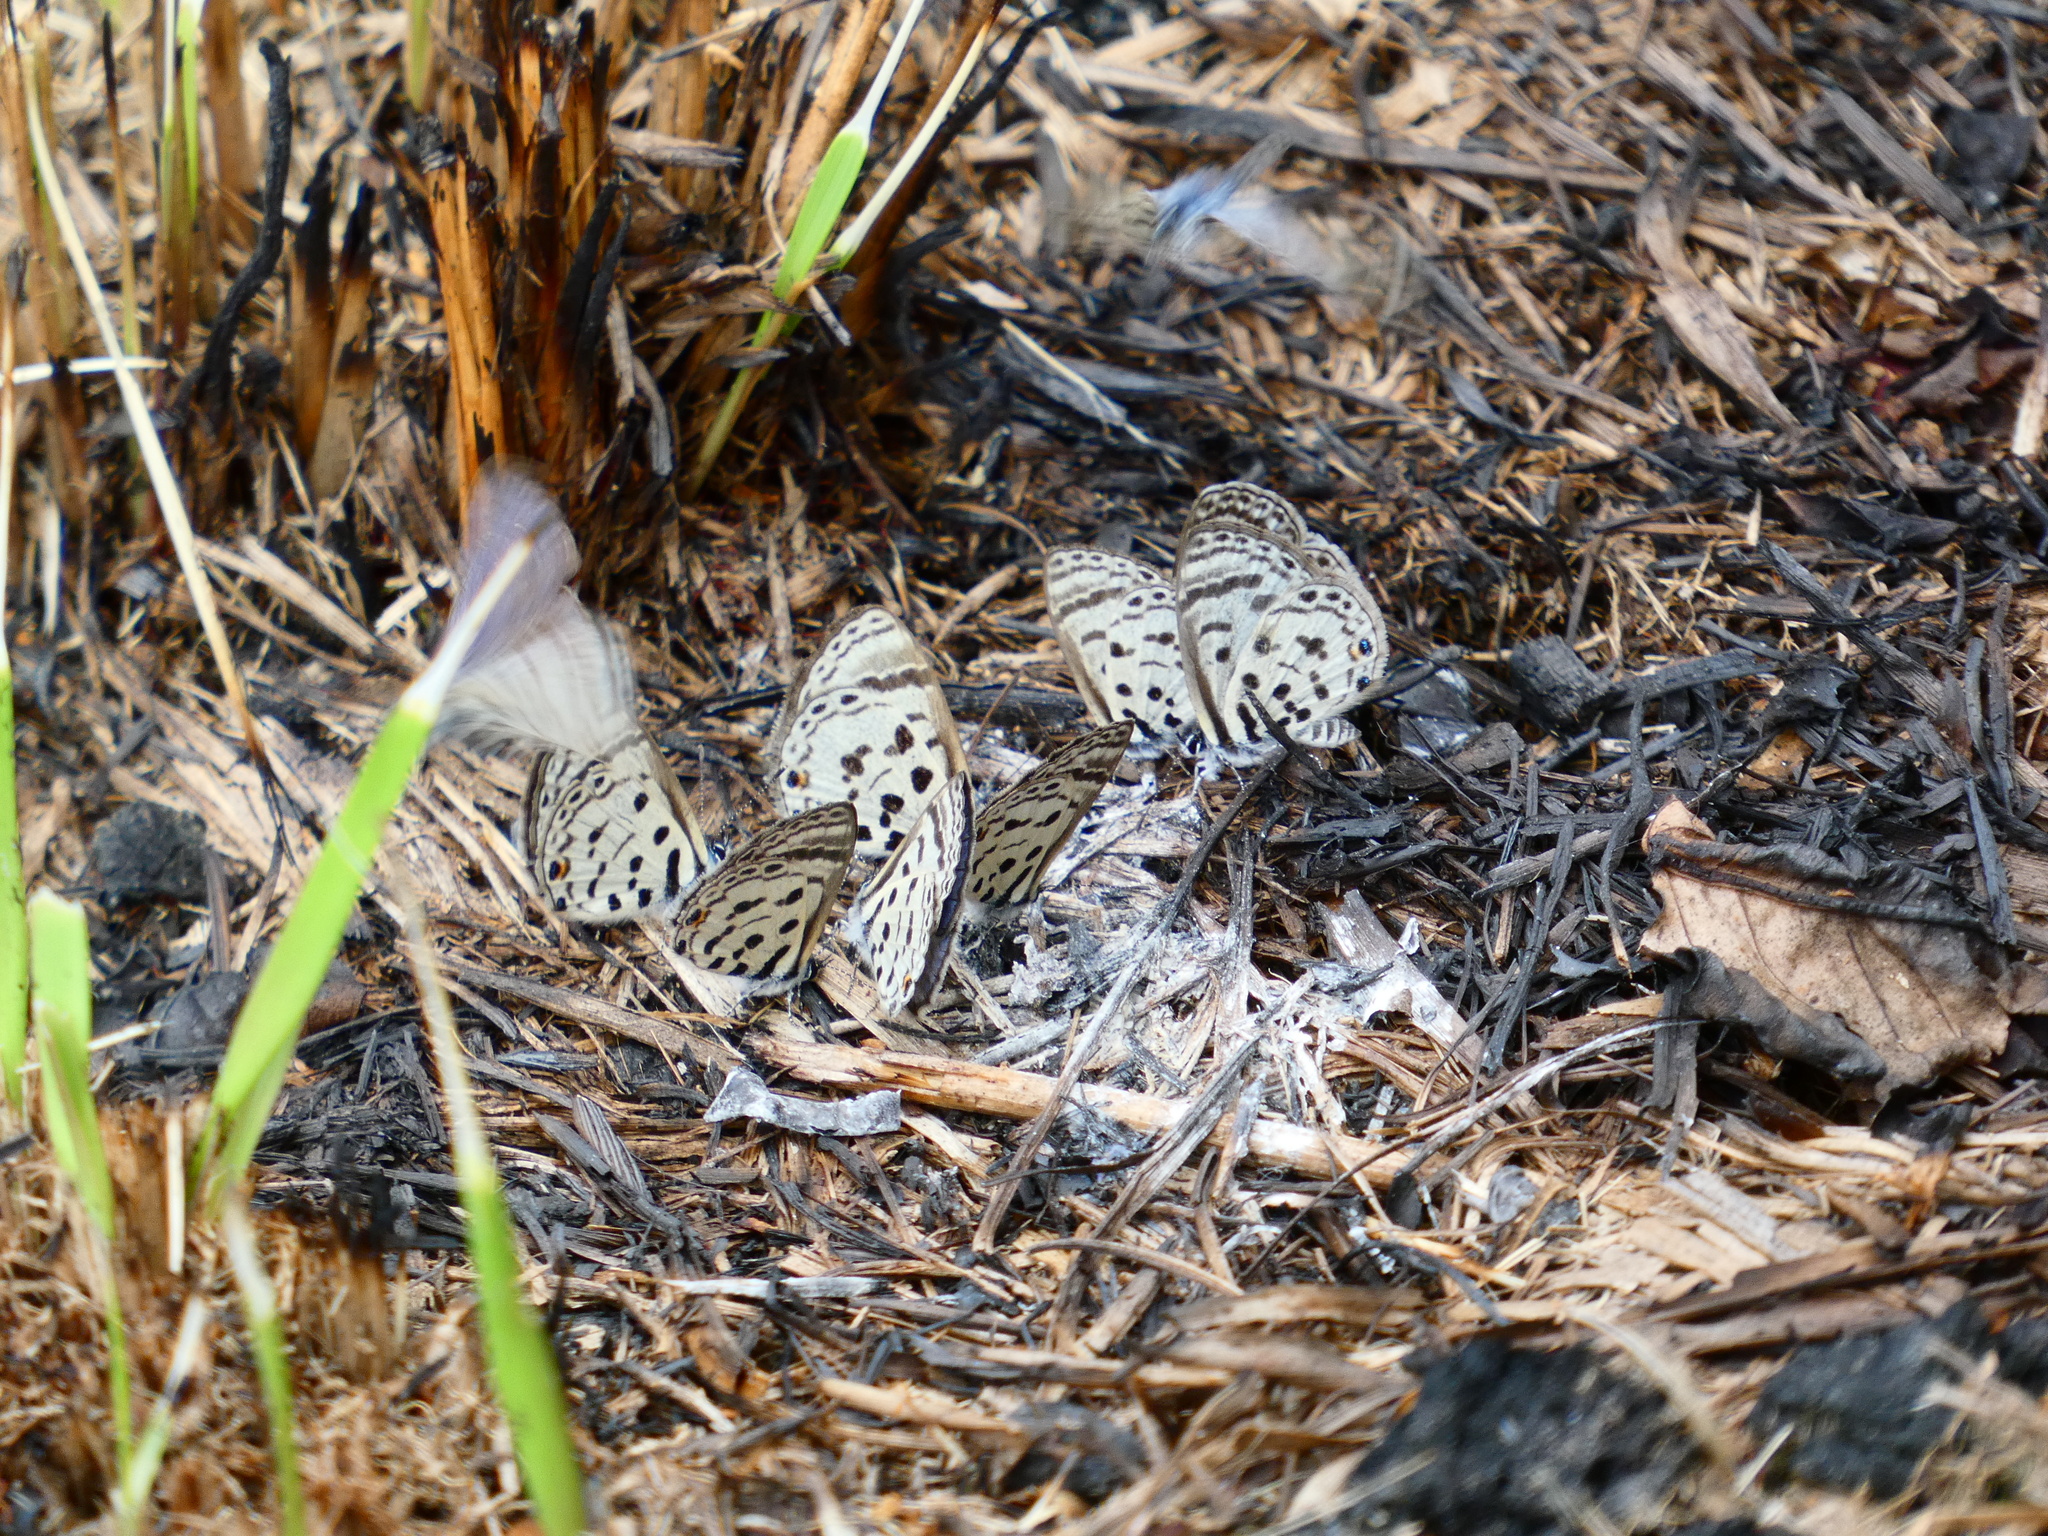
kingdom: Animalia
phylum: Arthropoda
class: Insecta
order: Lepidoptera
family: Lycaenidae
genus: Azanus
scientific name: Azanus mirza
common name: Mirza babul blue
